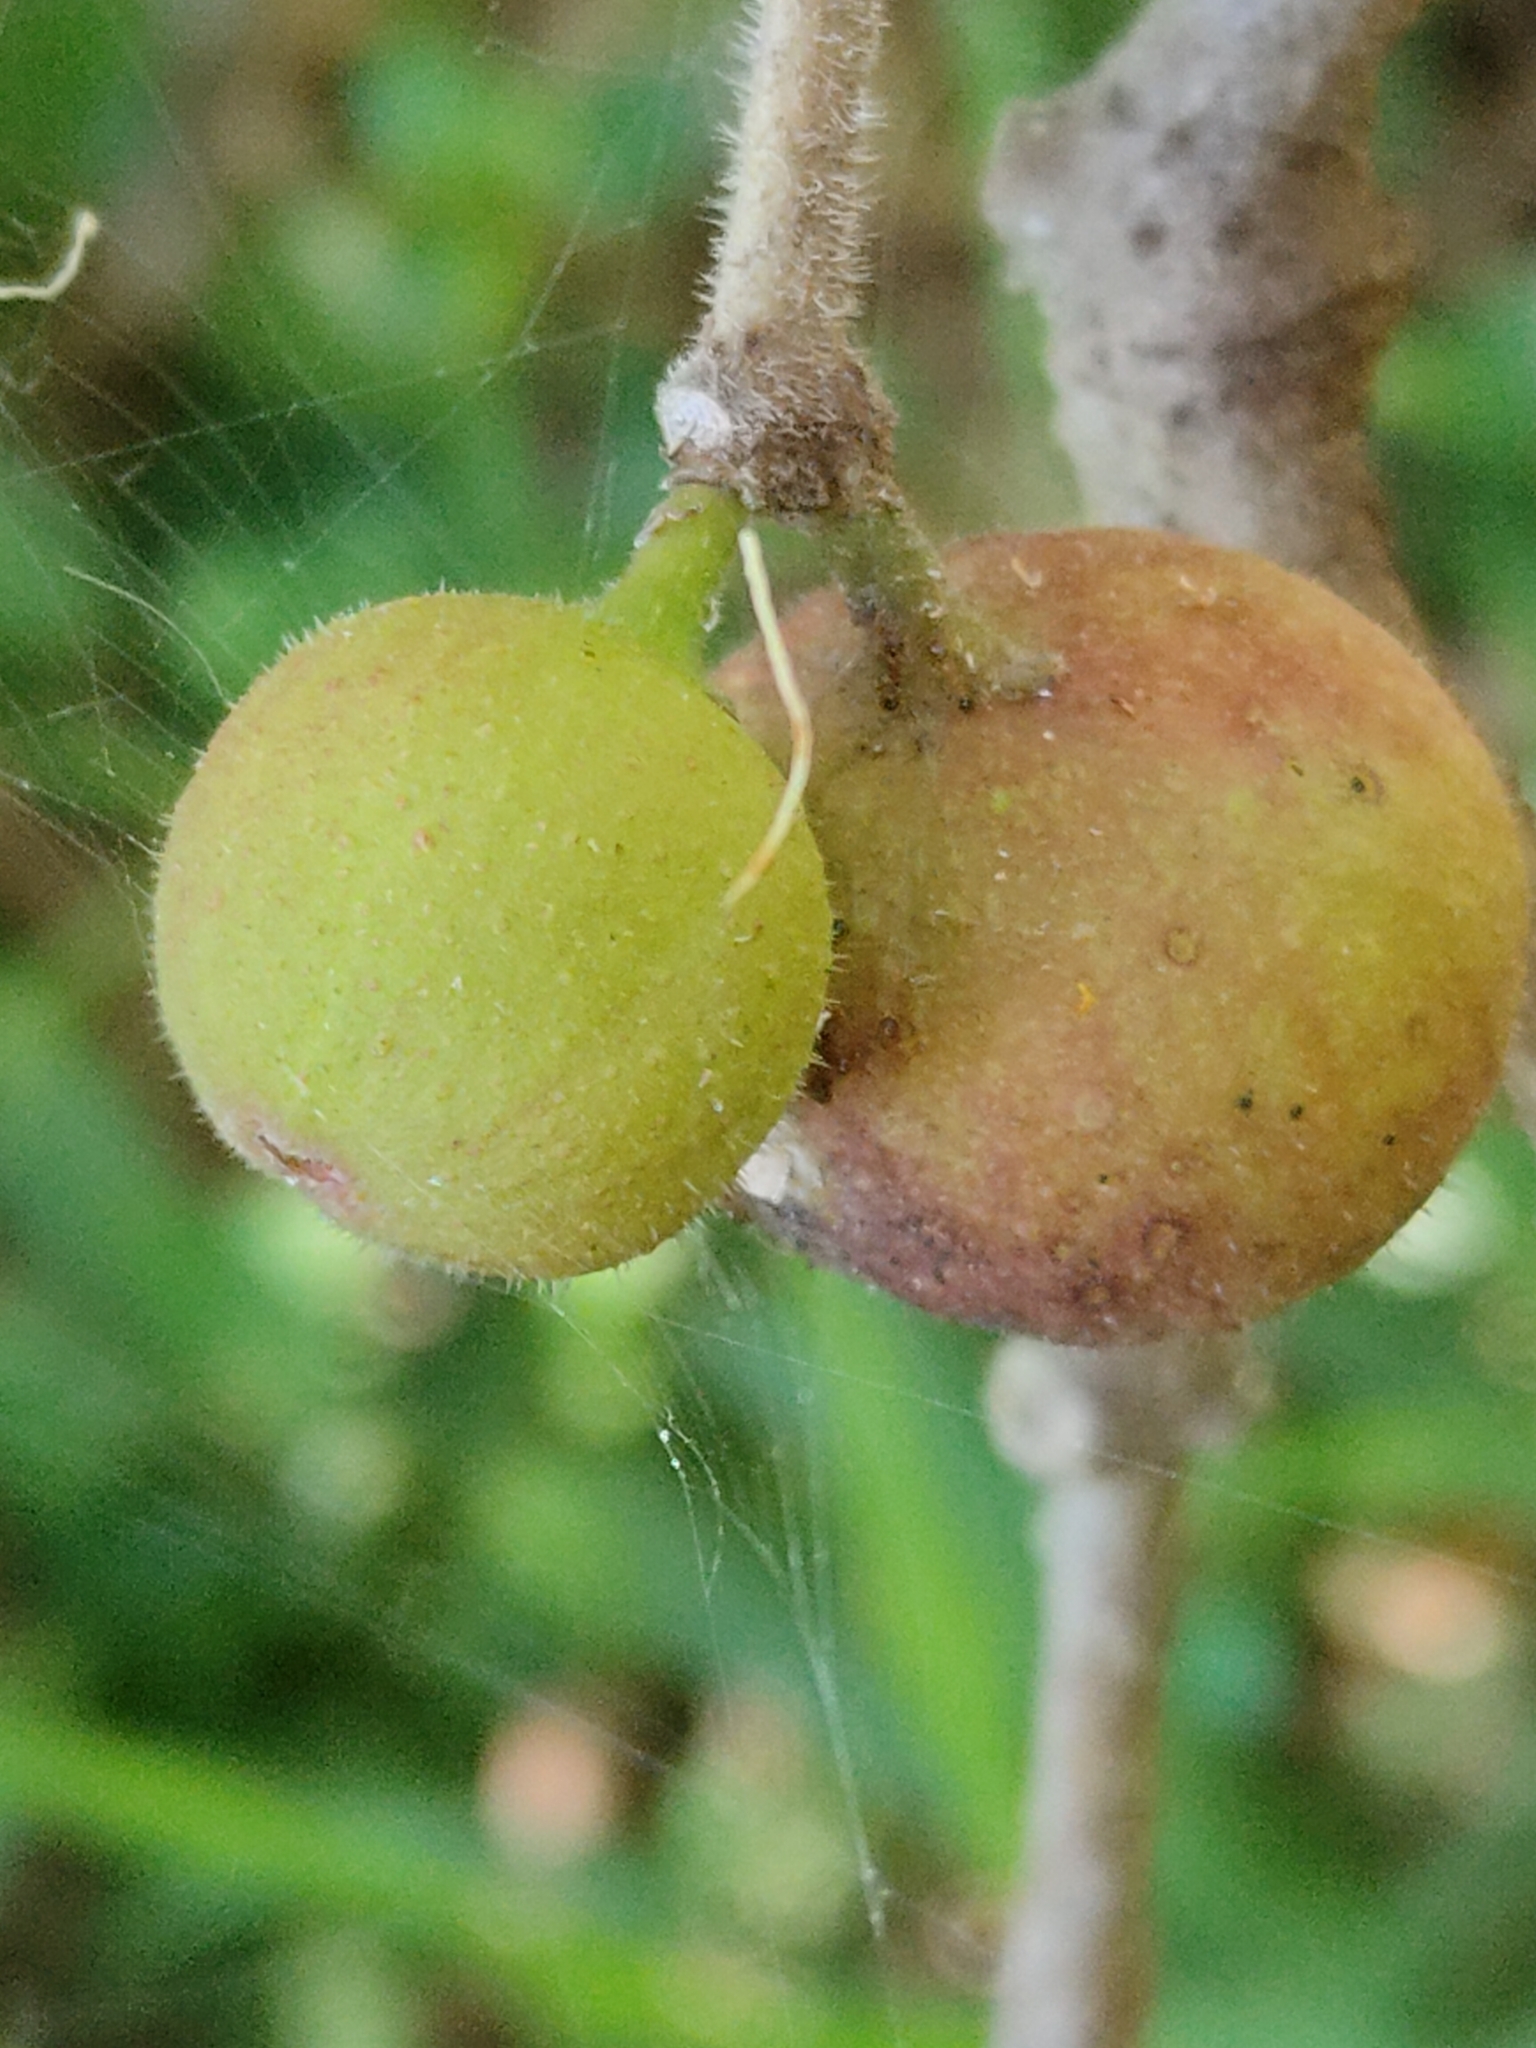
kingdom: Plantae
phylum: Tracheophyta
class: Magnoliopsida
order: Rosales
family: Moraceae
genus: Ficus
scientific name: Ficus opposita
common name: Figwood
